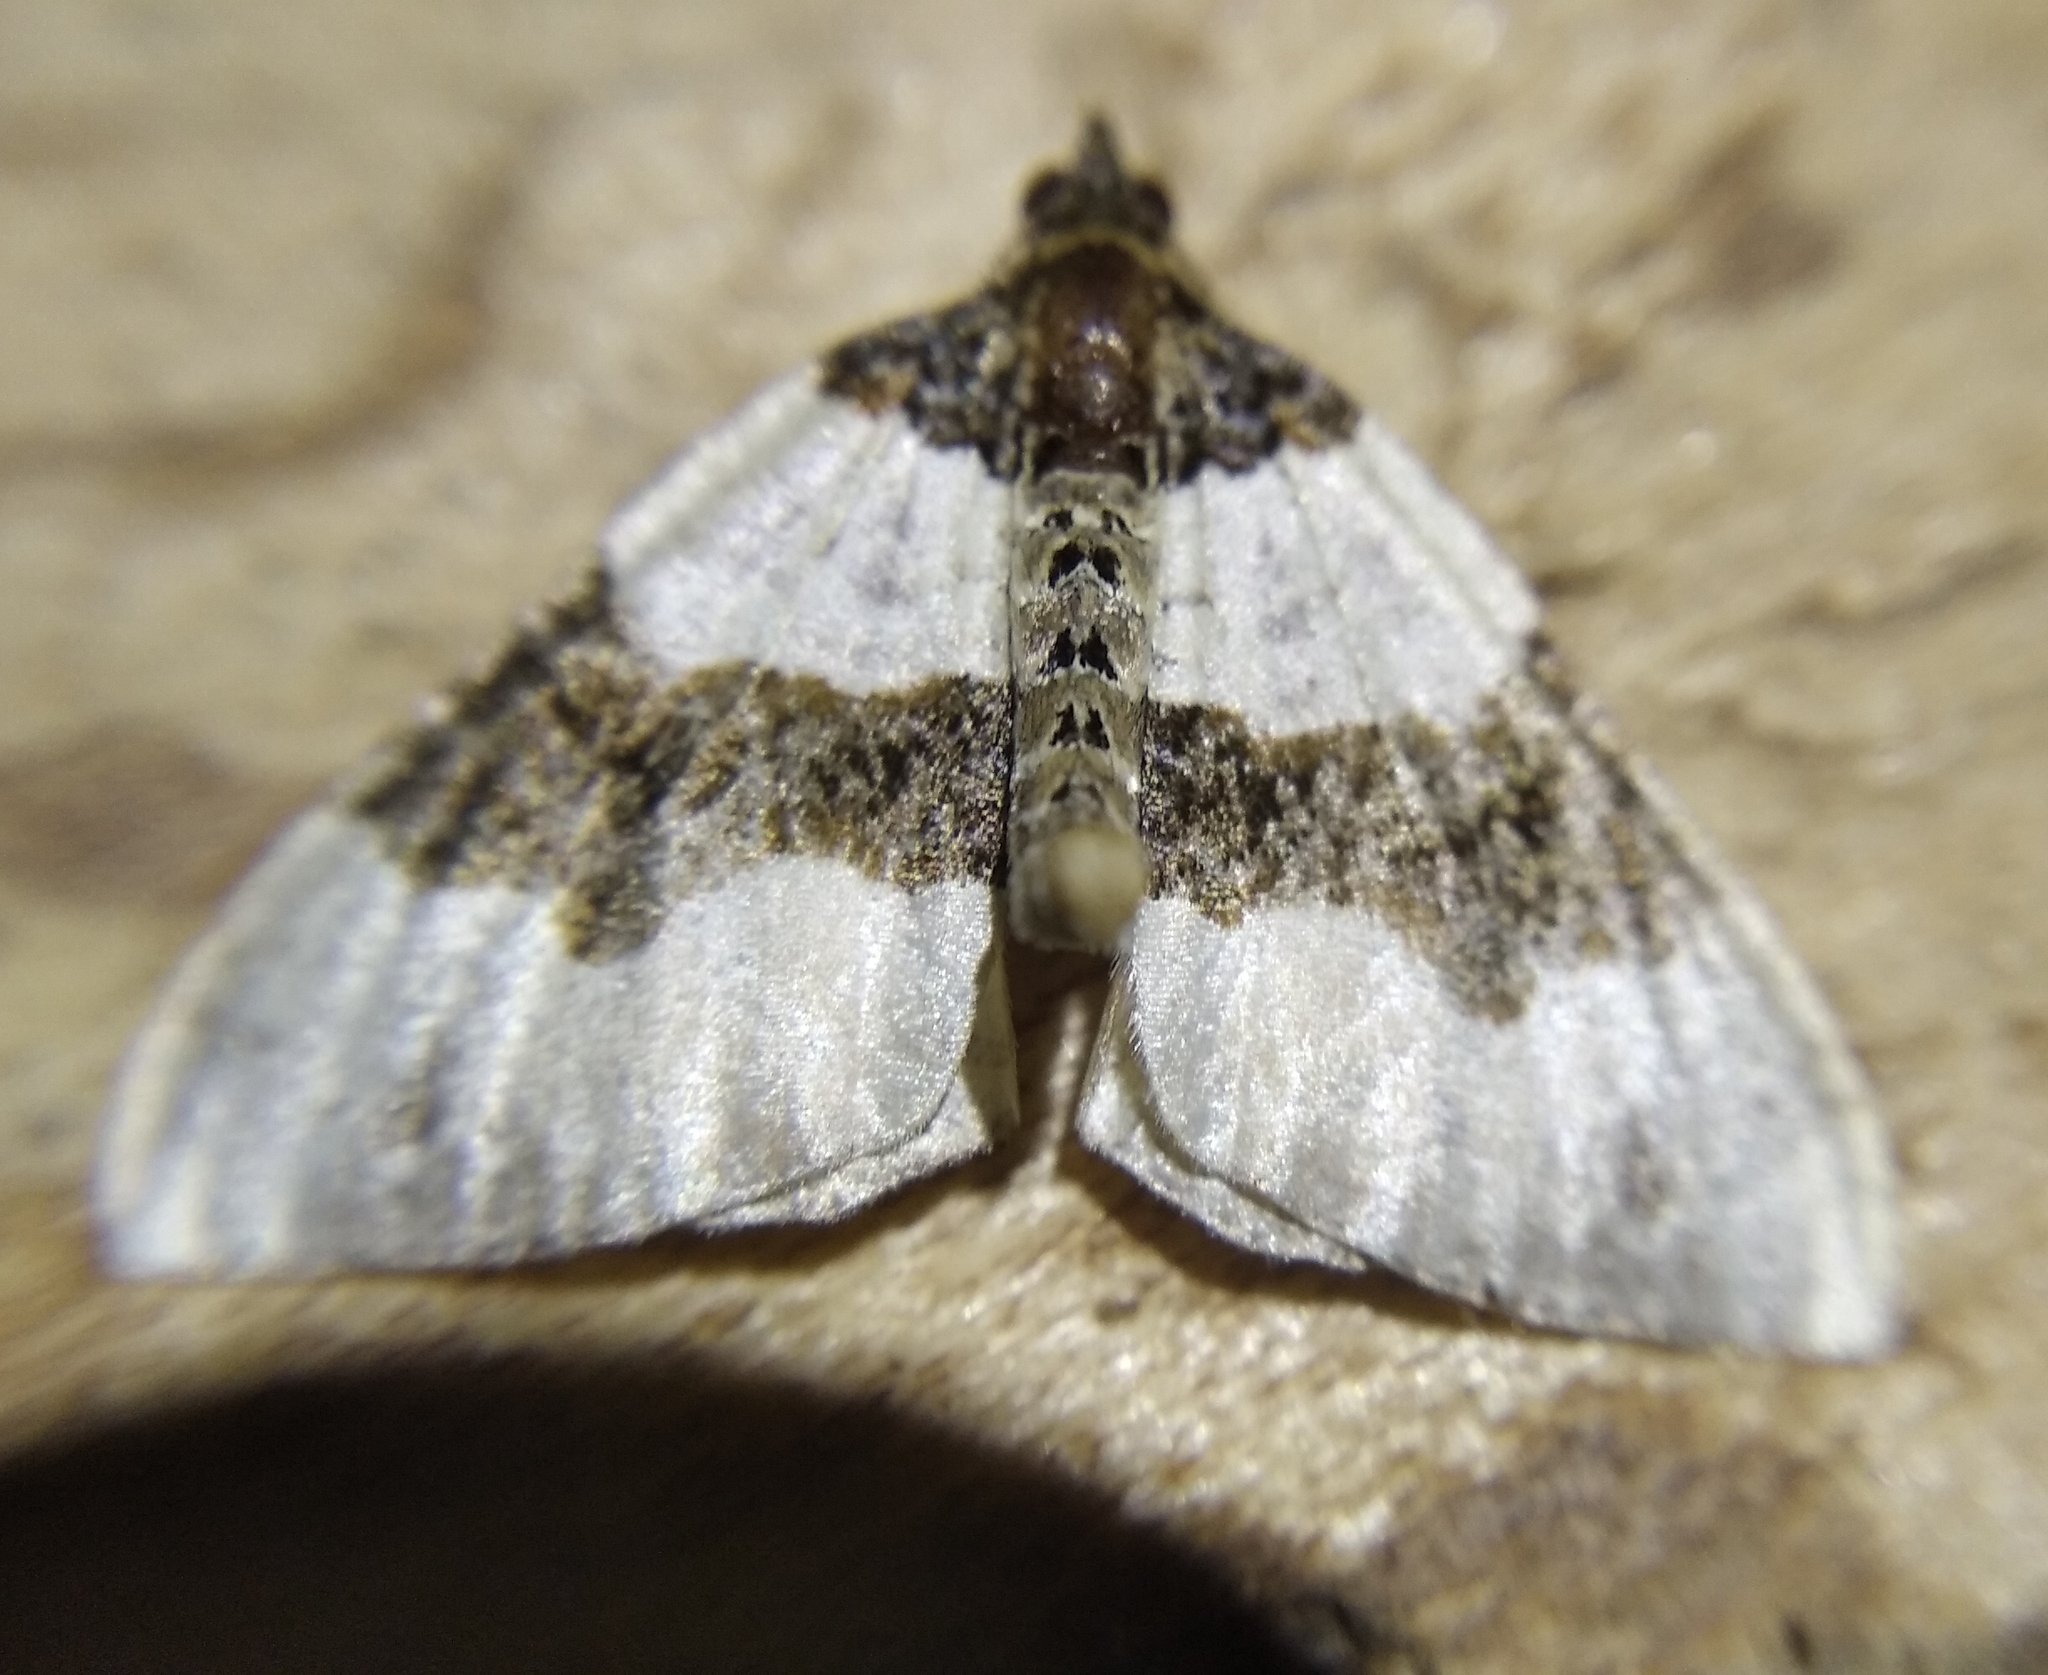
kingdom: Animalia
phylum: Arthropoda
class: Insecta
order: Lepidoptera
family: Geometridae
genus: Cosmorhoe
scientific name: Cosmorhoe ocellata
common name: Purple bar
